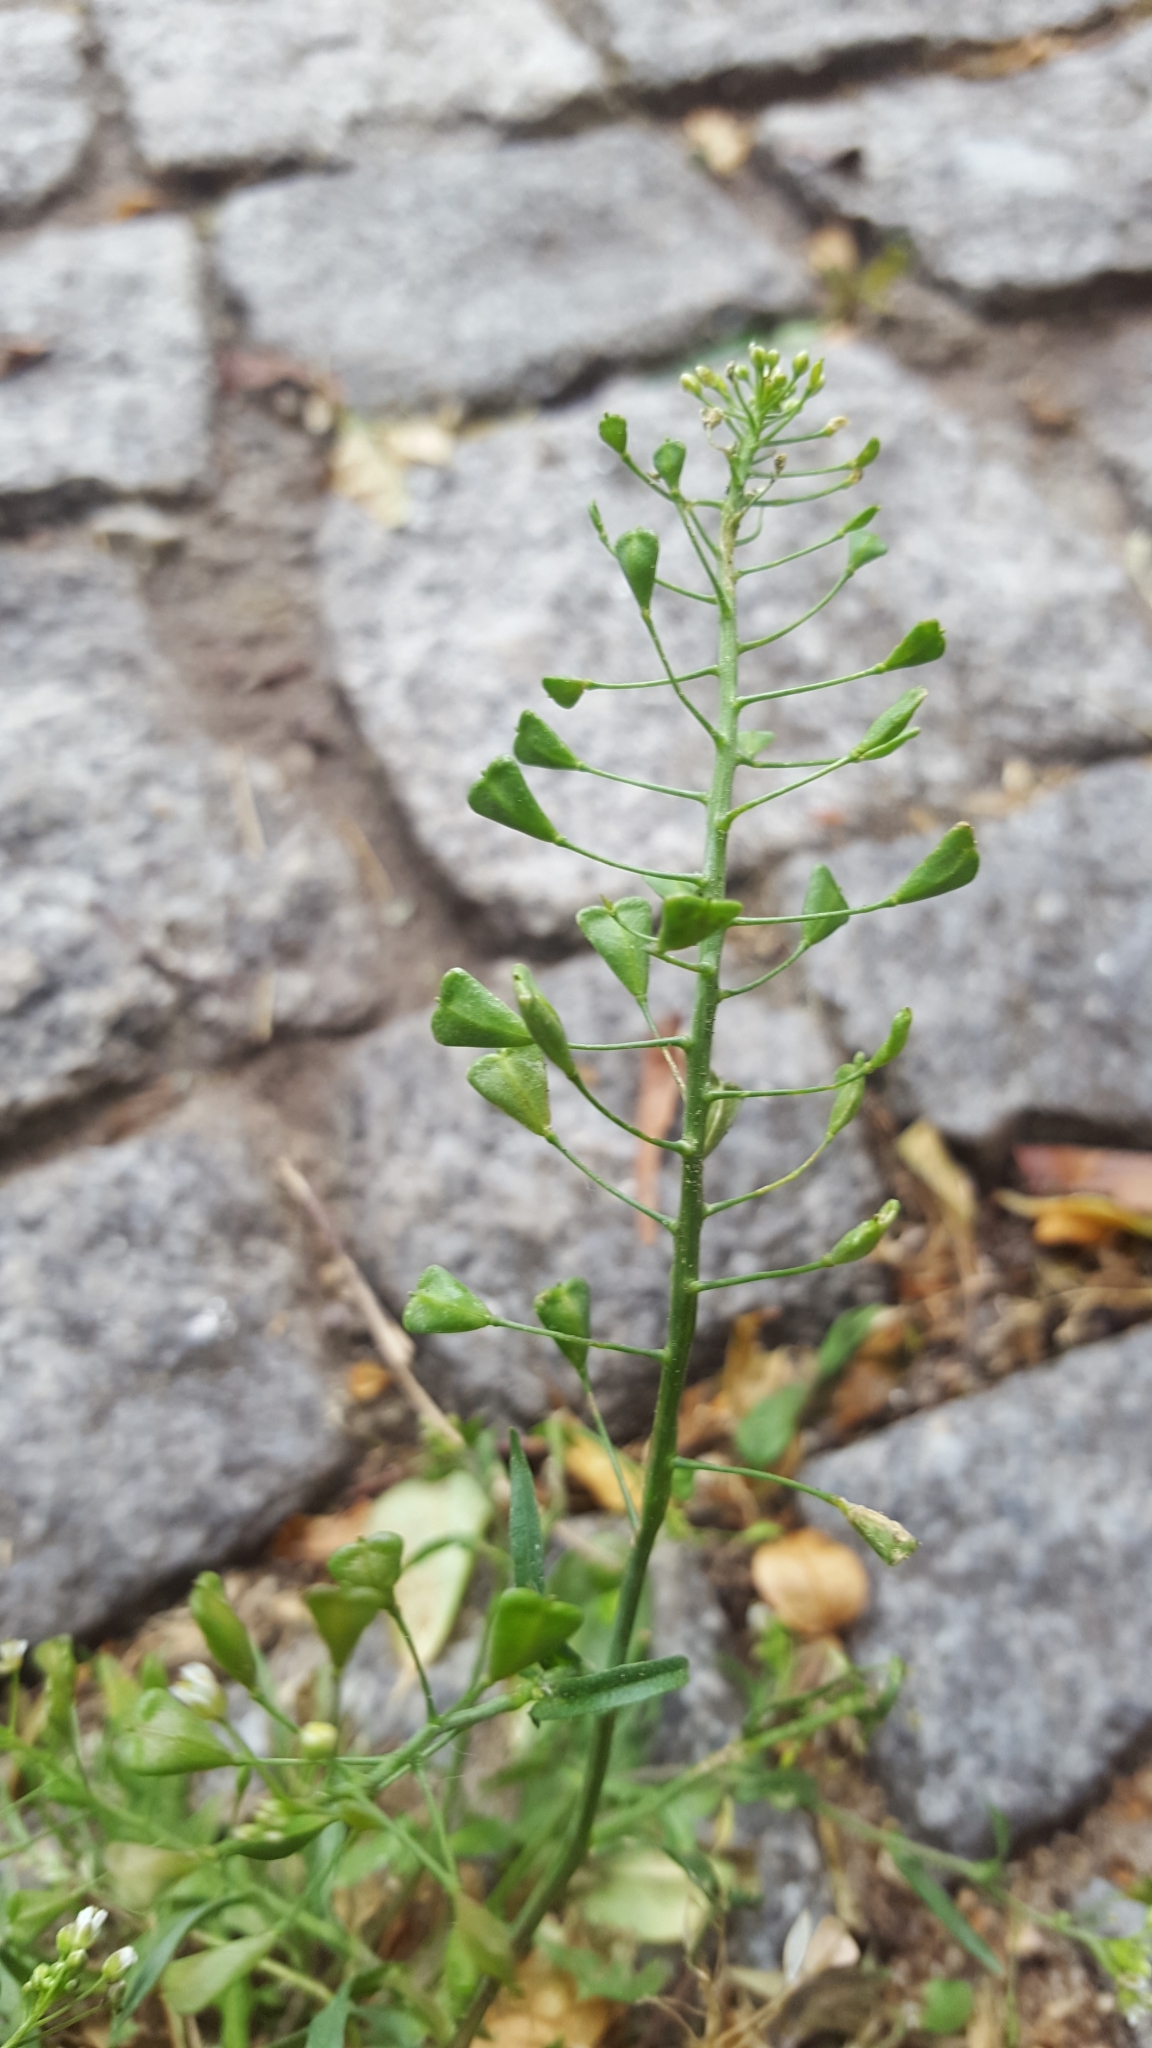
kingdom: Plantae
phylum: Tracheophyta
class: Magnoliopsida
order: Brassicales
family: Brassicaceae
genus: Capsella
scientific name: Capsella bursa-pastoris
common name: Shepherd's purse
